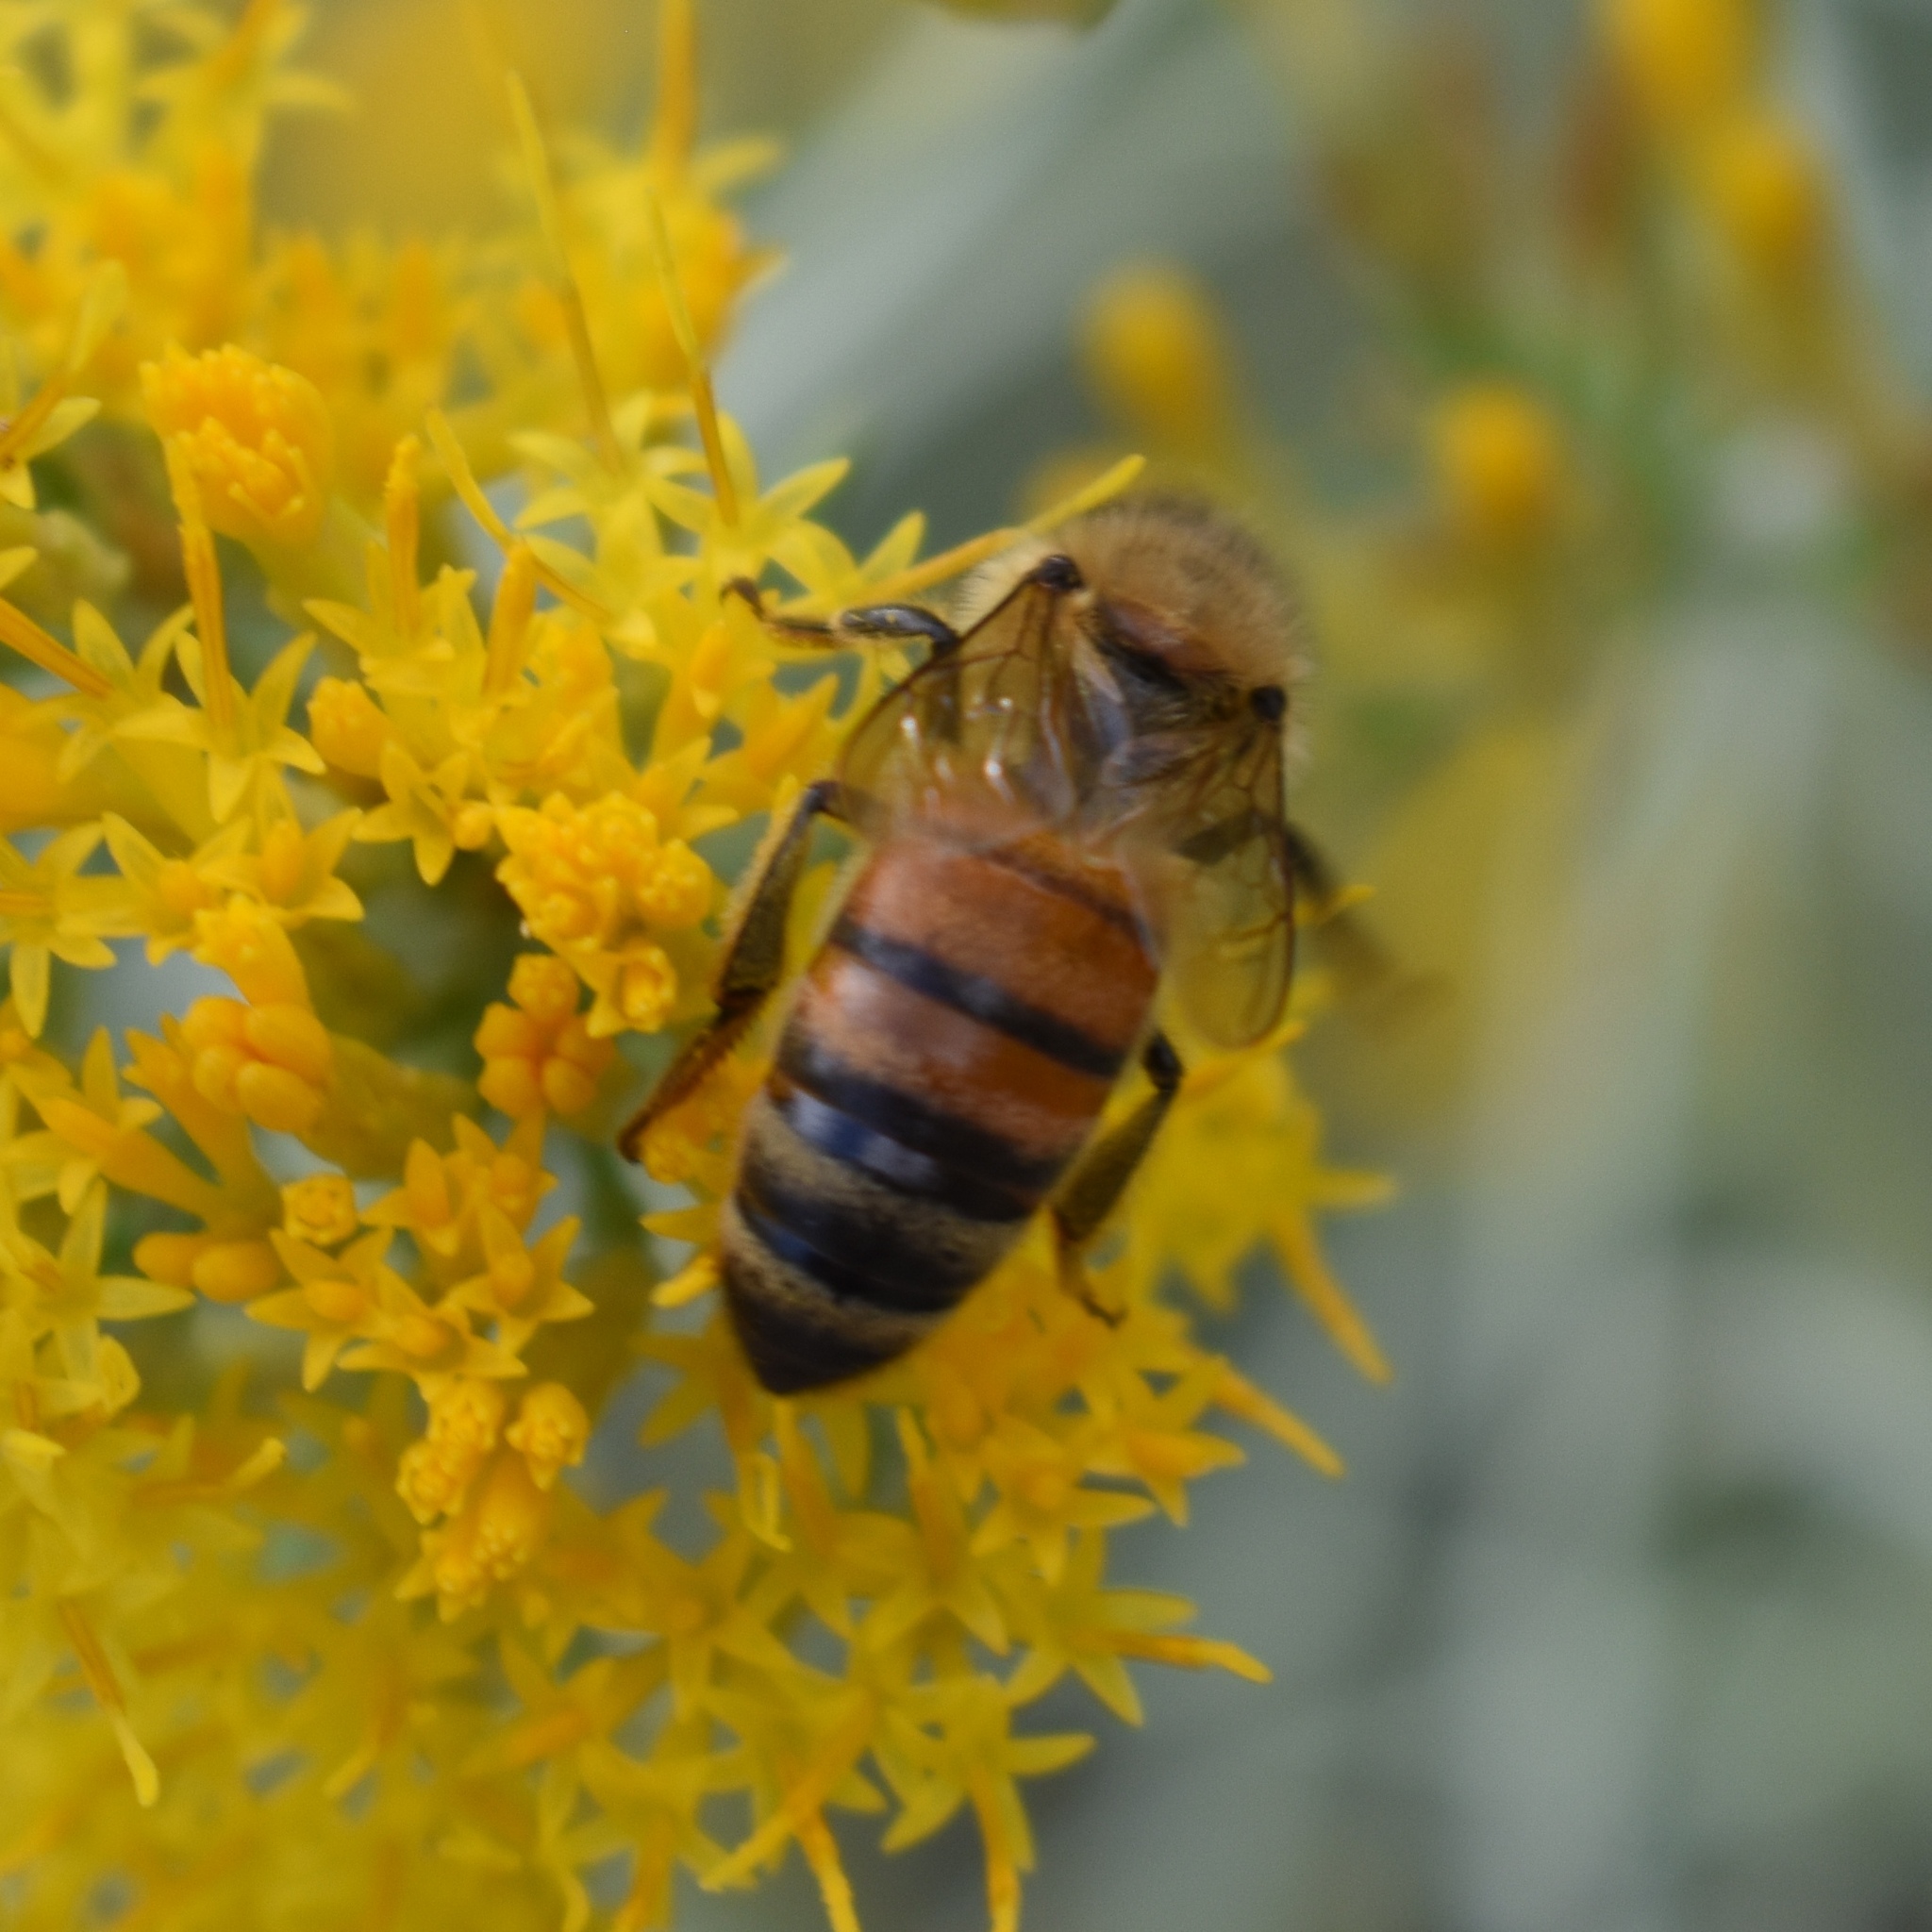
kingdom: Animalia
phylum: Arthropoda
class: Insecta
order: Hymenoptera
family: Apidae
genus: Apis
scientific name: Apis mellifera
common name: Honey bee
